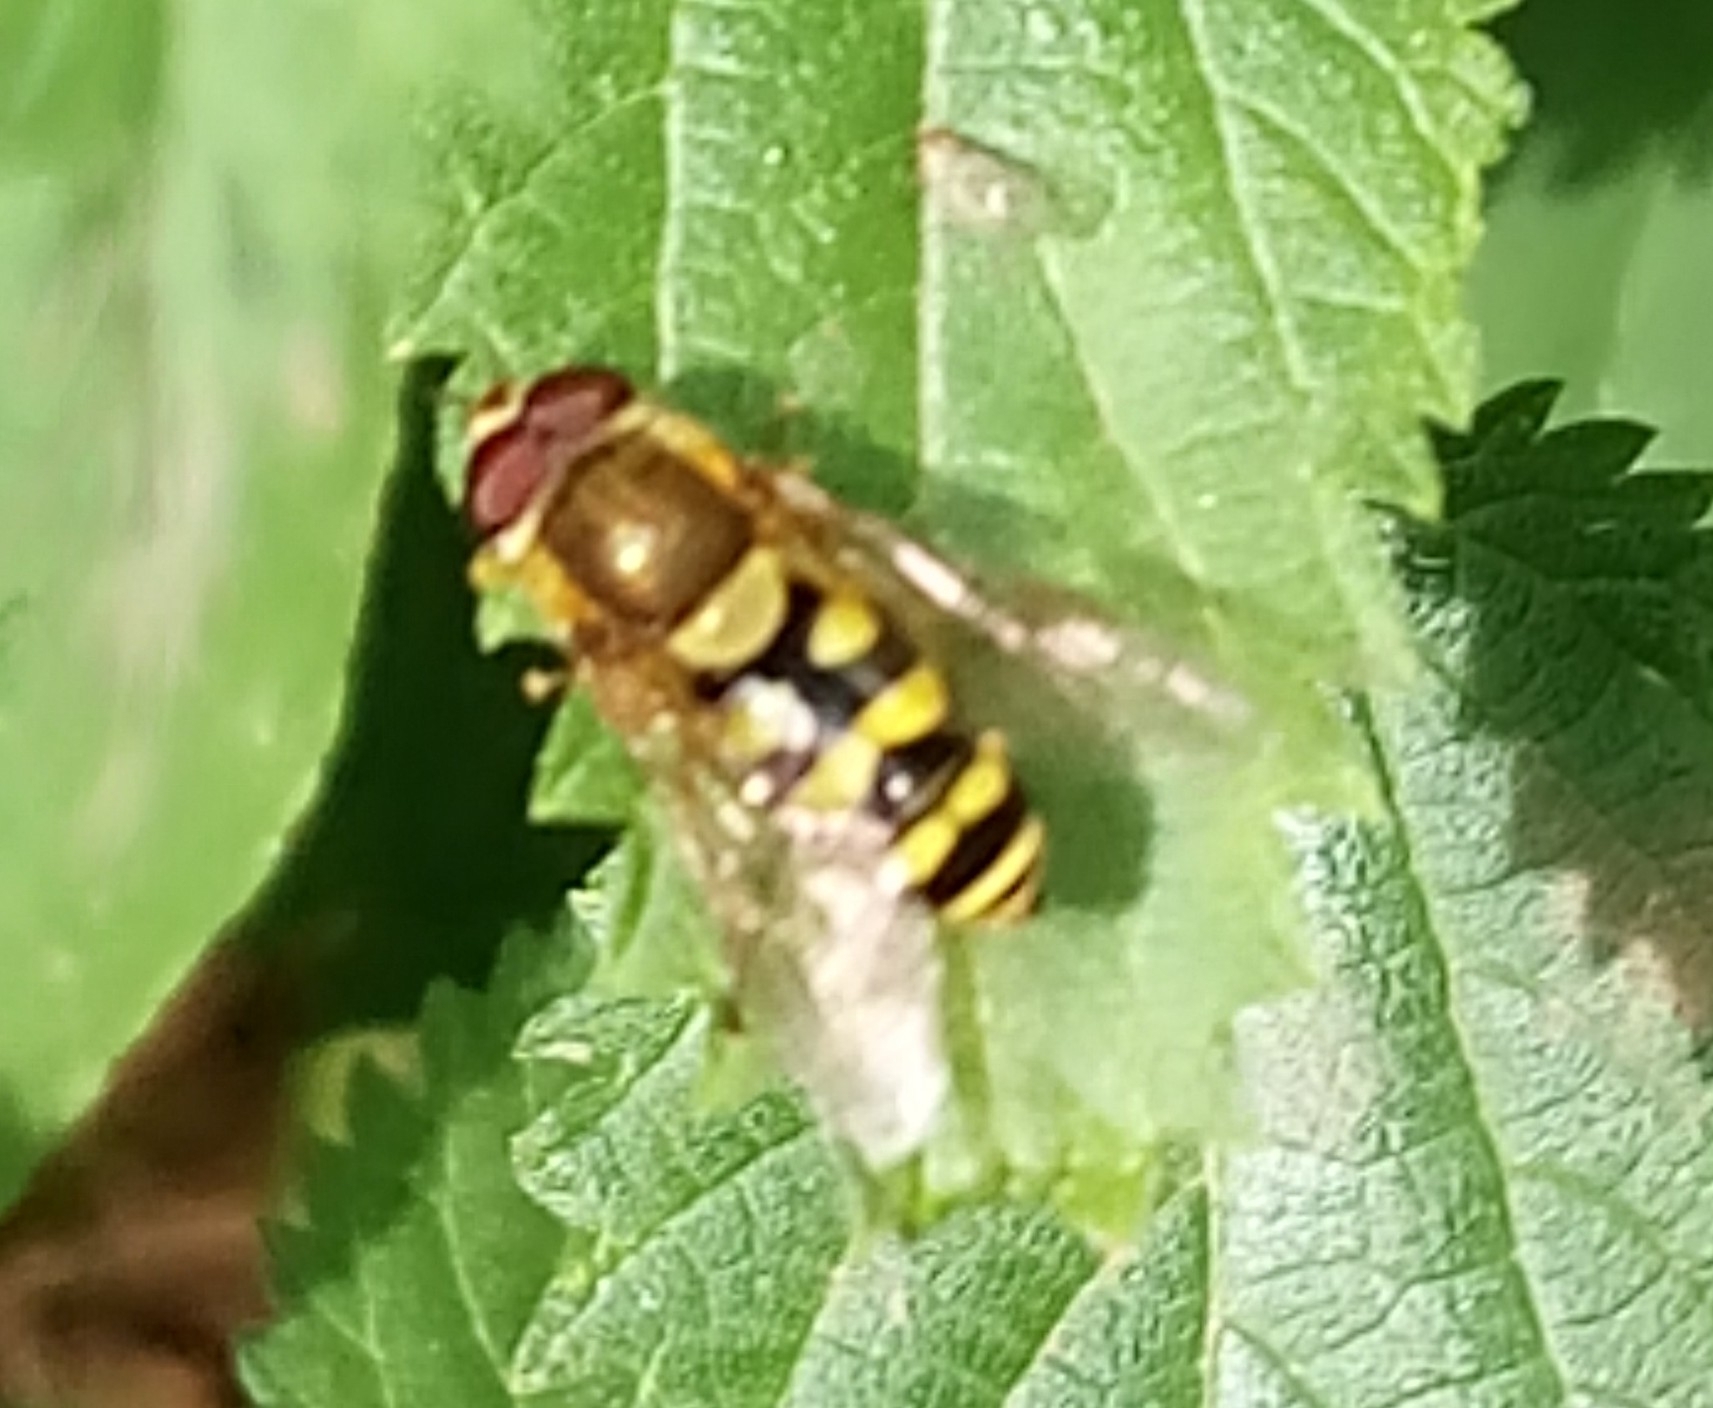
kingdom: Animalia
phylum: Arthropoda
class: Insecta
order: Diptera
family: Syrphidae
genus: Syrphus
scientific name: Syrphus
